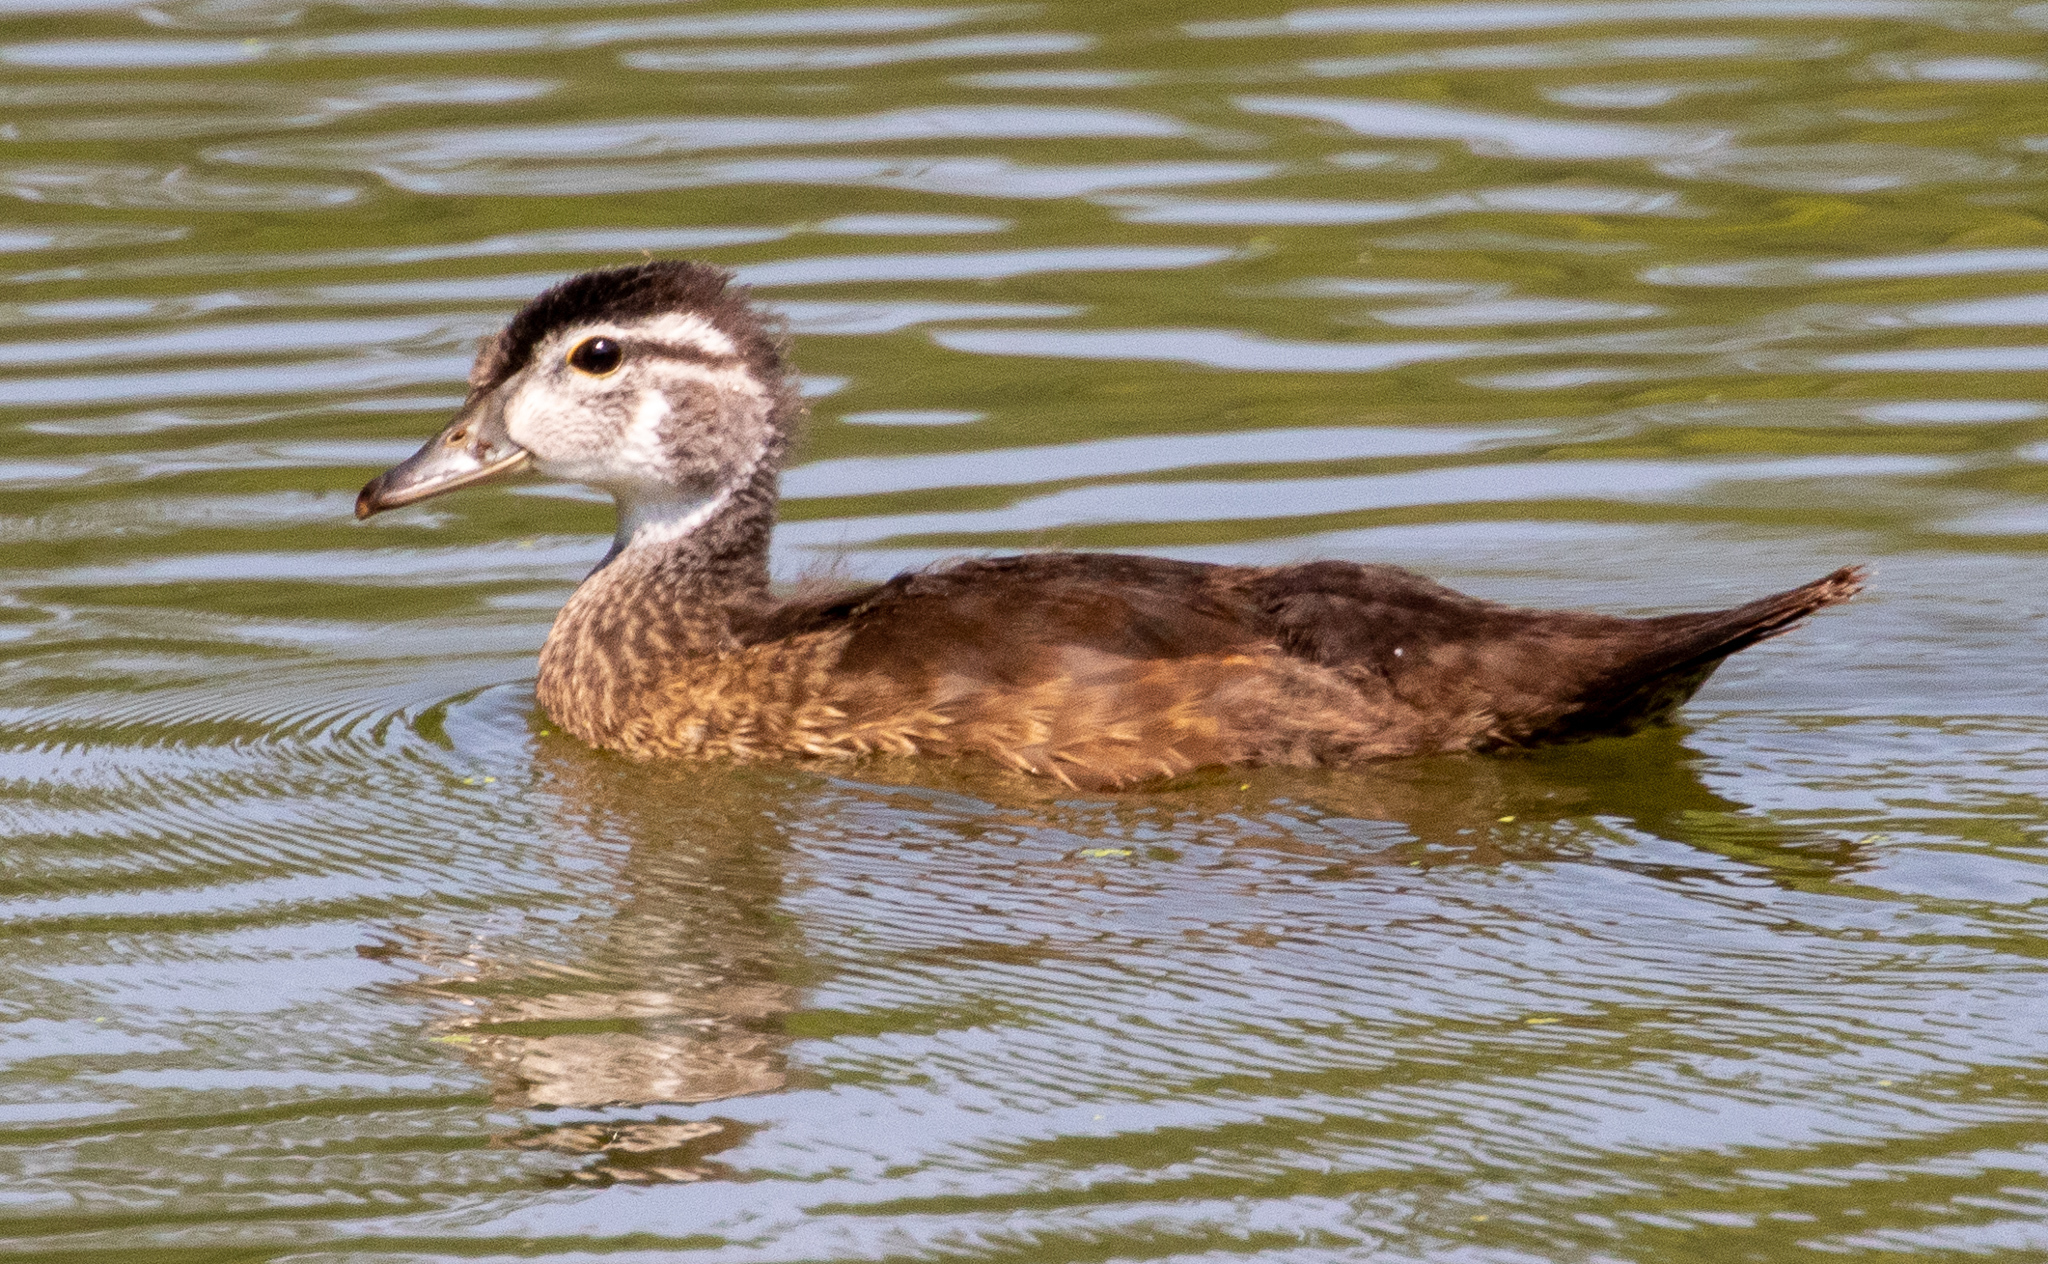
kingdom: Animalia
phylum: Chordata
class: Aves
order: Anseriformes
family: Anatidae
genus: Aix
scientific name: Aix sponsa
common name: Wood duck
